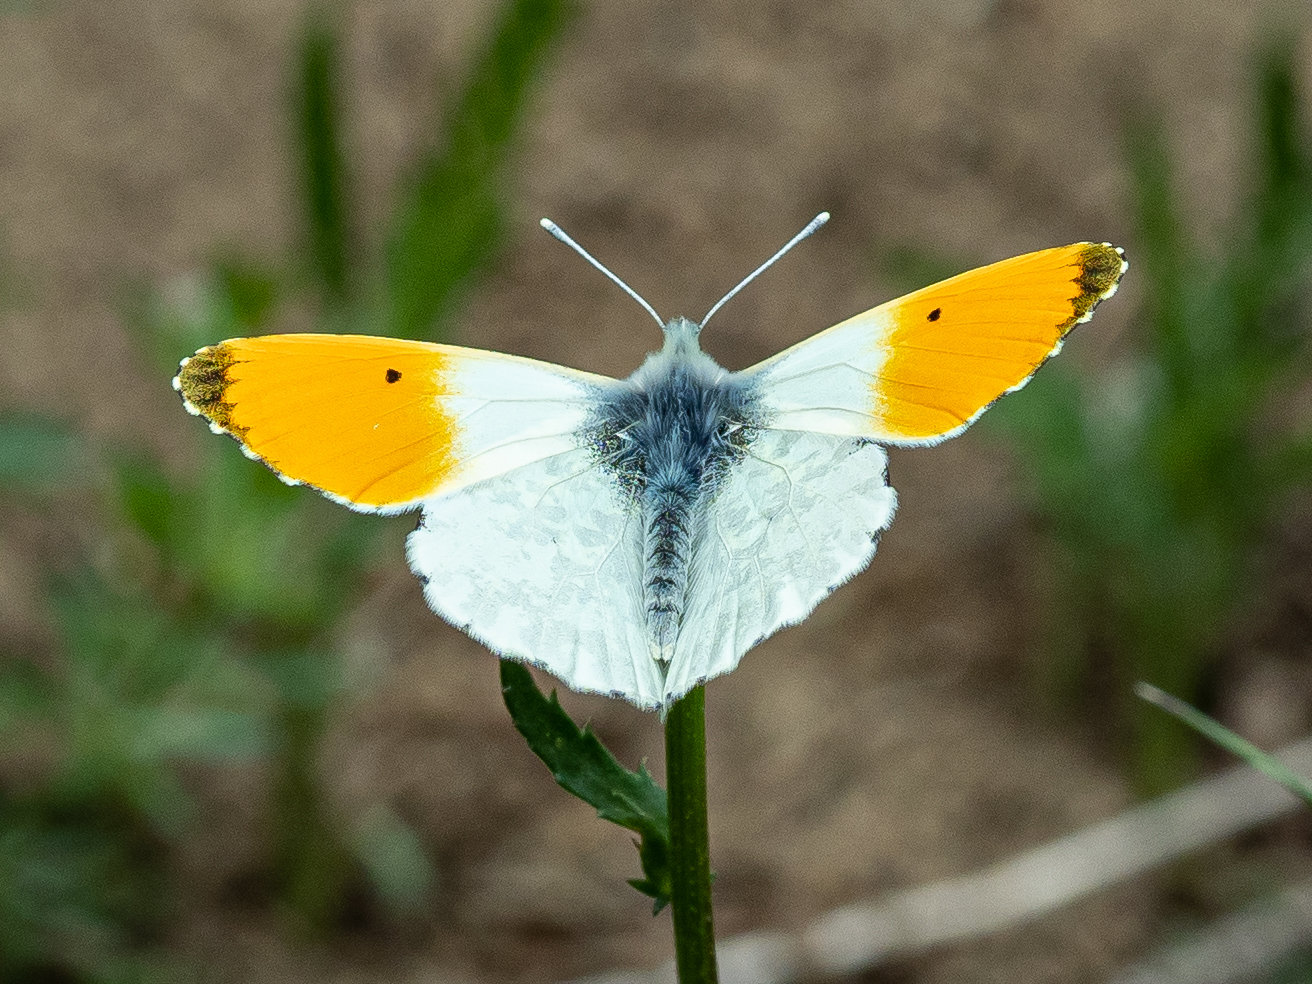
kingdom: Animalia
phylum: Arthropoda
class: Insecta
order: Lepidoptera
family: Pieridae
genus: Anthocharis
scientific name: Anthocharis cardamines
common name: Orange-tip
